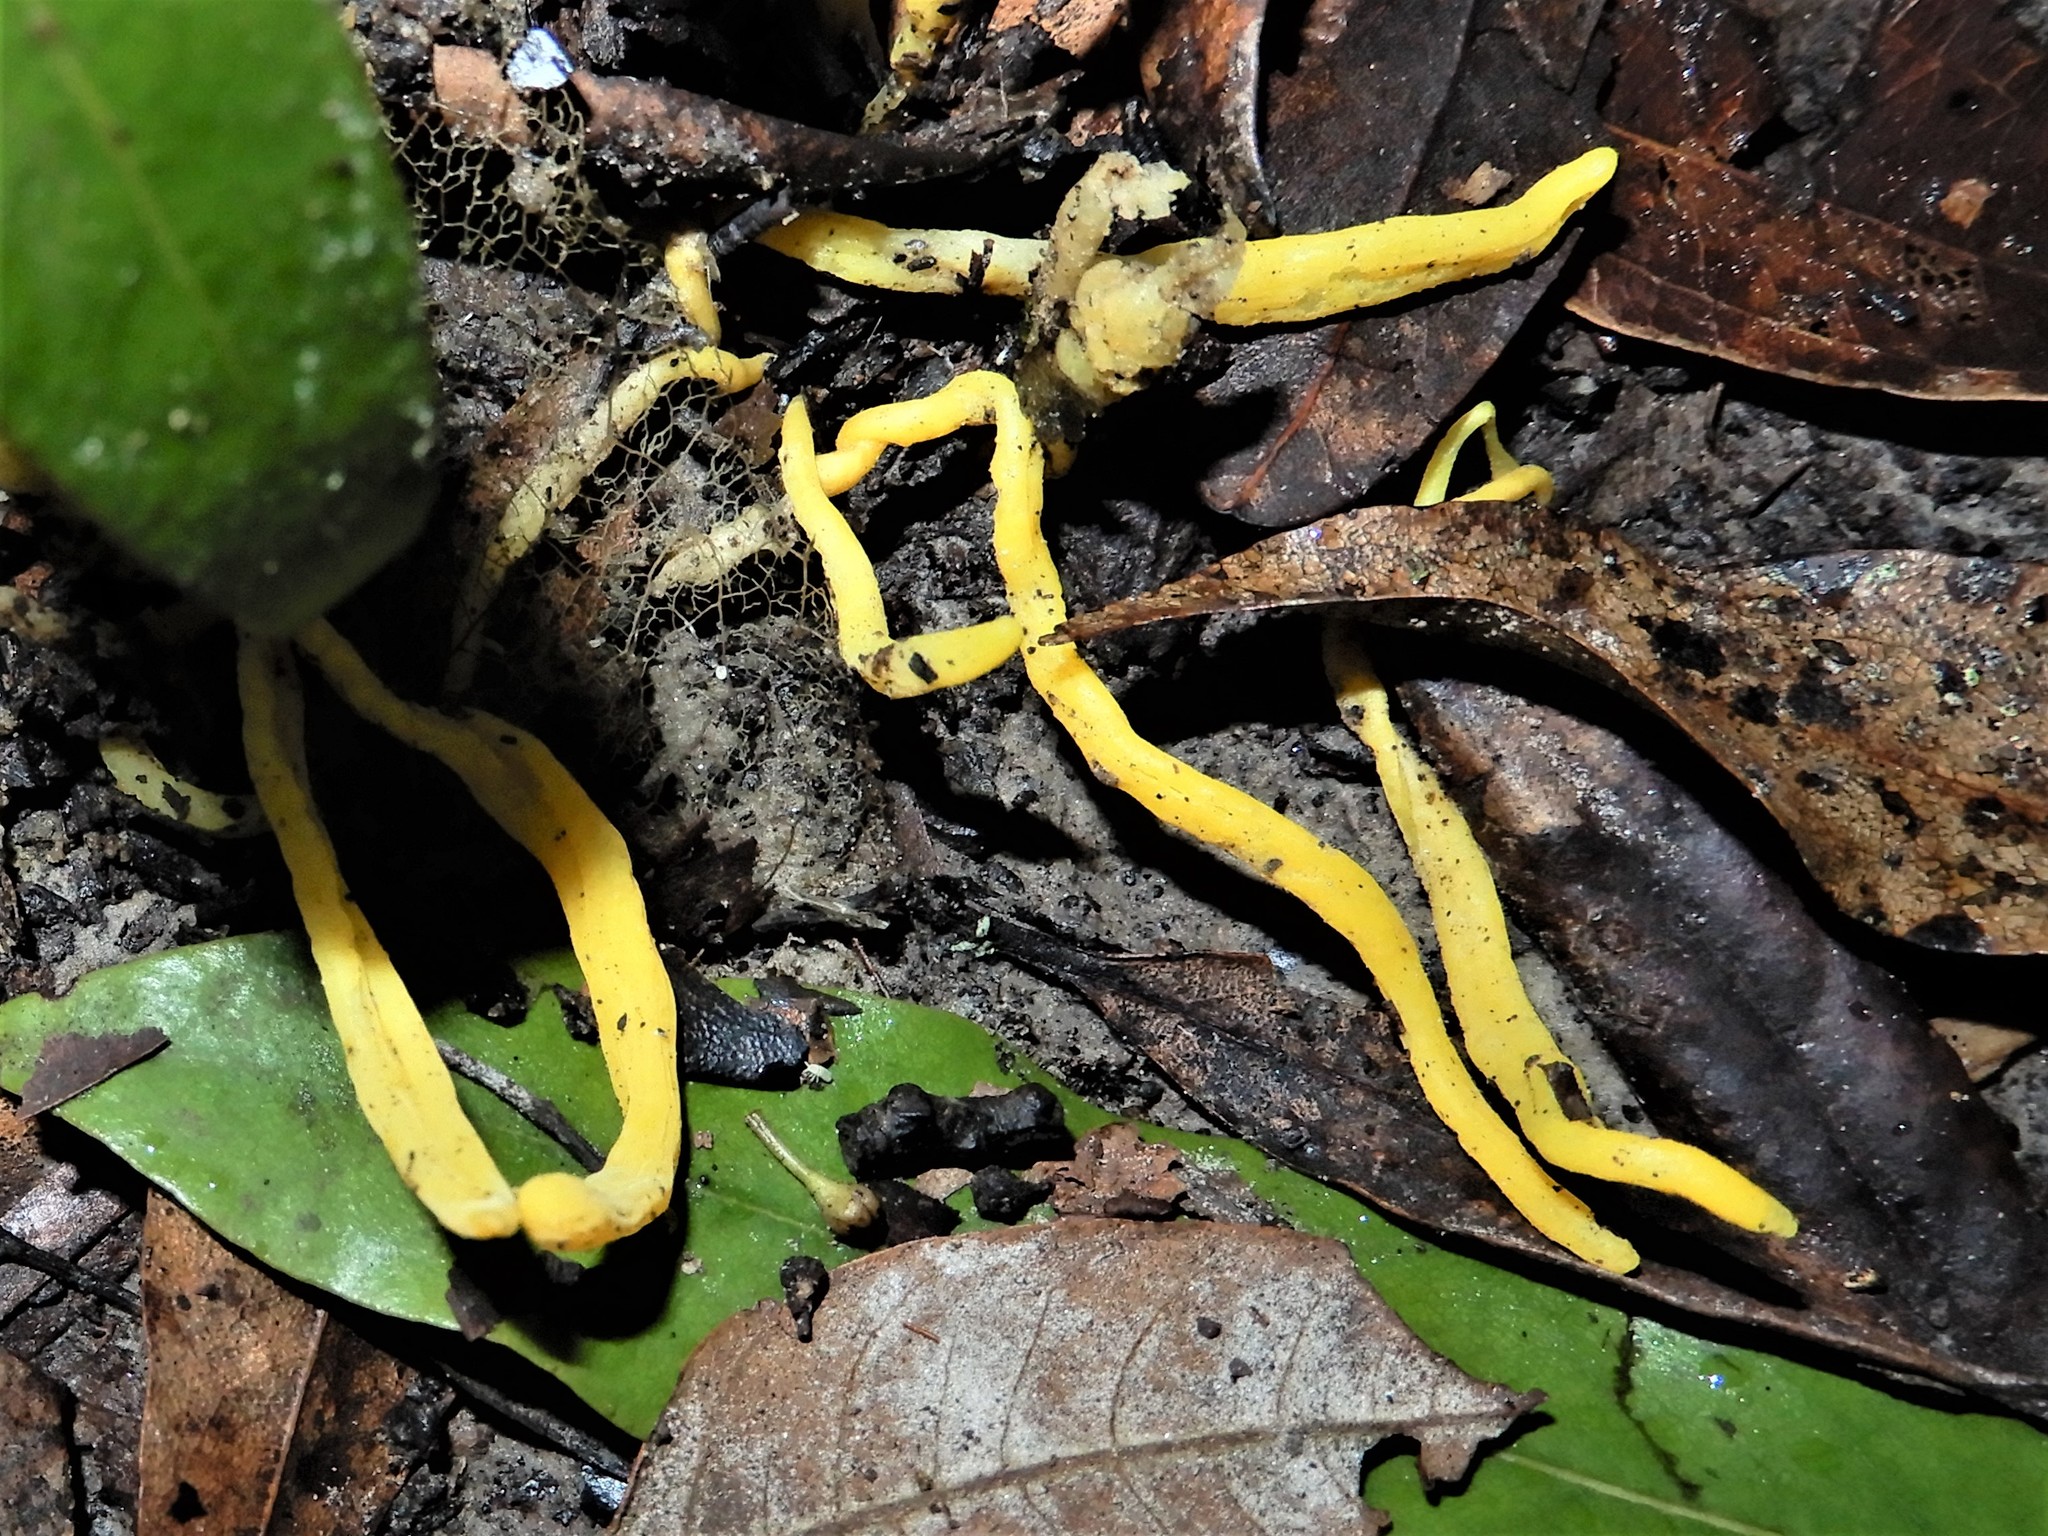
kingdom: Fungi
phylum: Basidiomycota
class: Agaricomycetes
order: Agaricales
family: Clavariaceae
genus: Clavulinopsis
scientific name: Clavulinopsis
